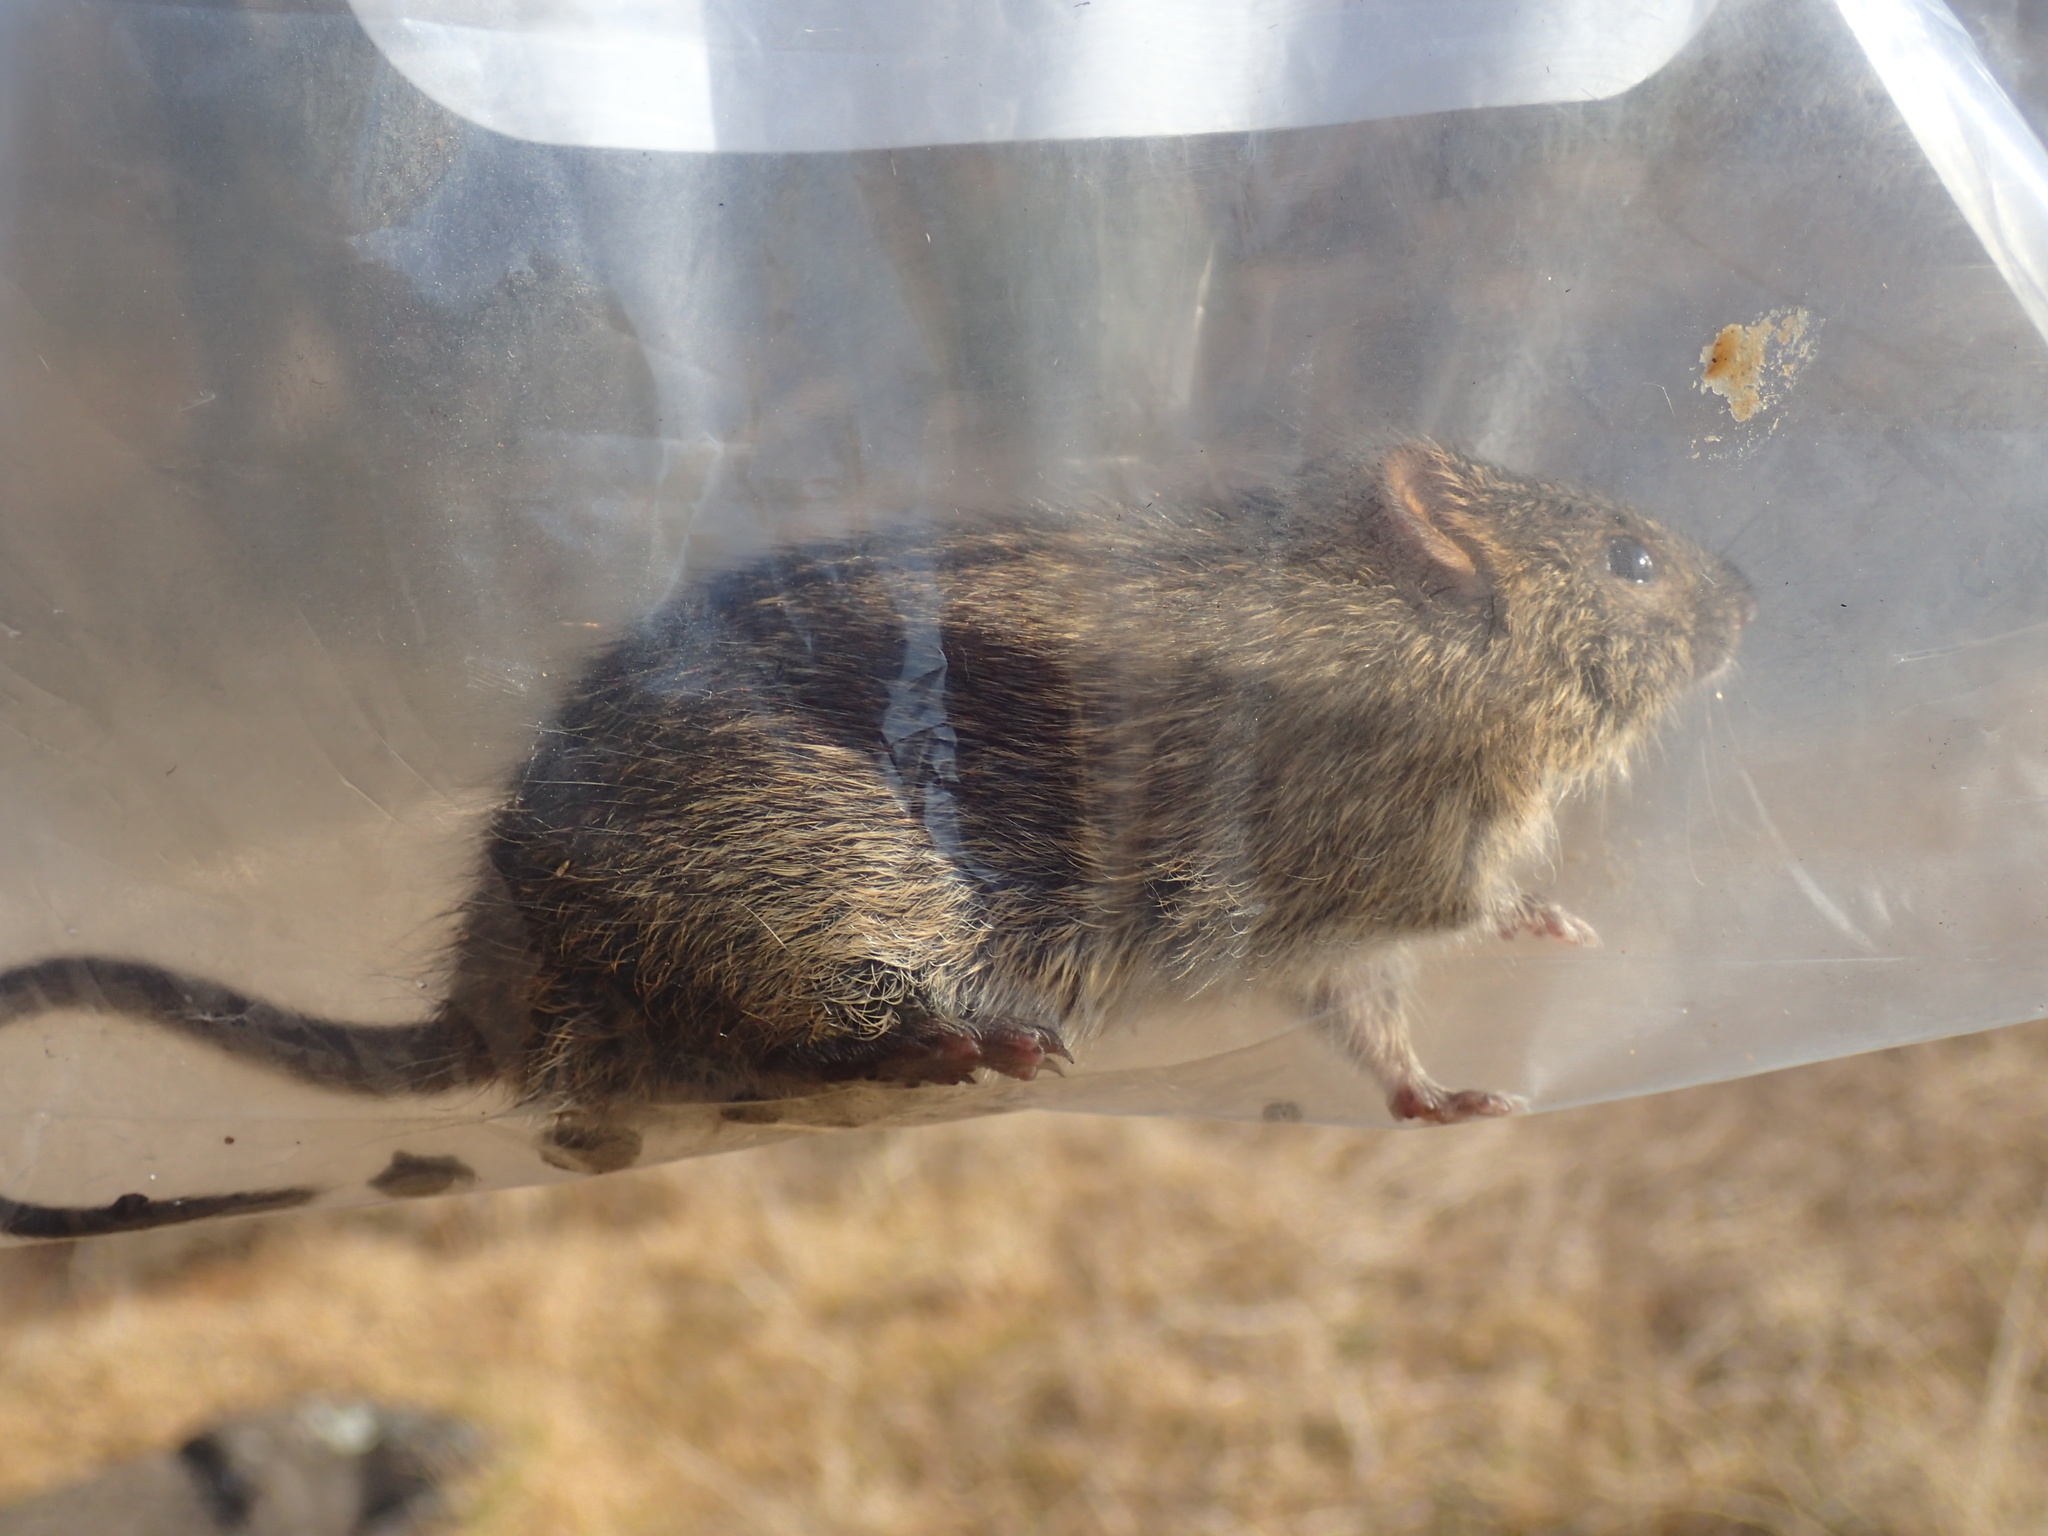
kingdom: Animalia
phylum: Chordata
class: Mammalia
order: Rodentia
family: Muridae
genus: Rhabdomys
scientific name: Rhabdomys dilectus
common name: Mesic four-striped grass rat
